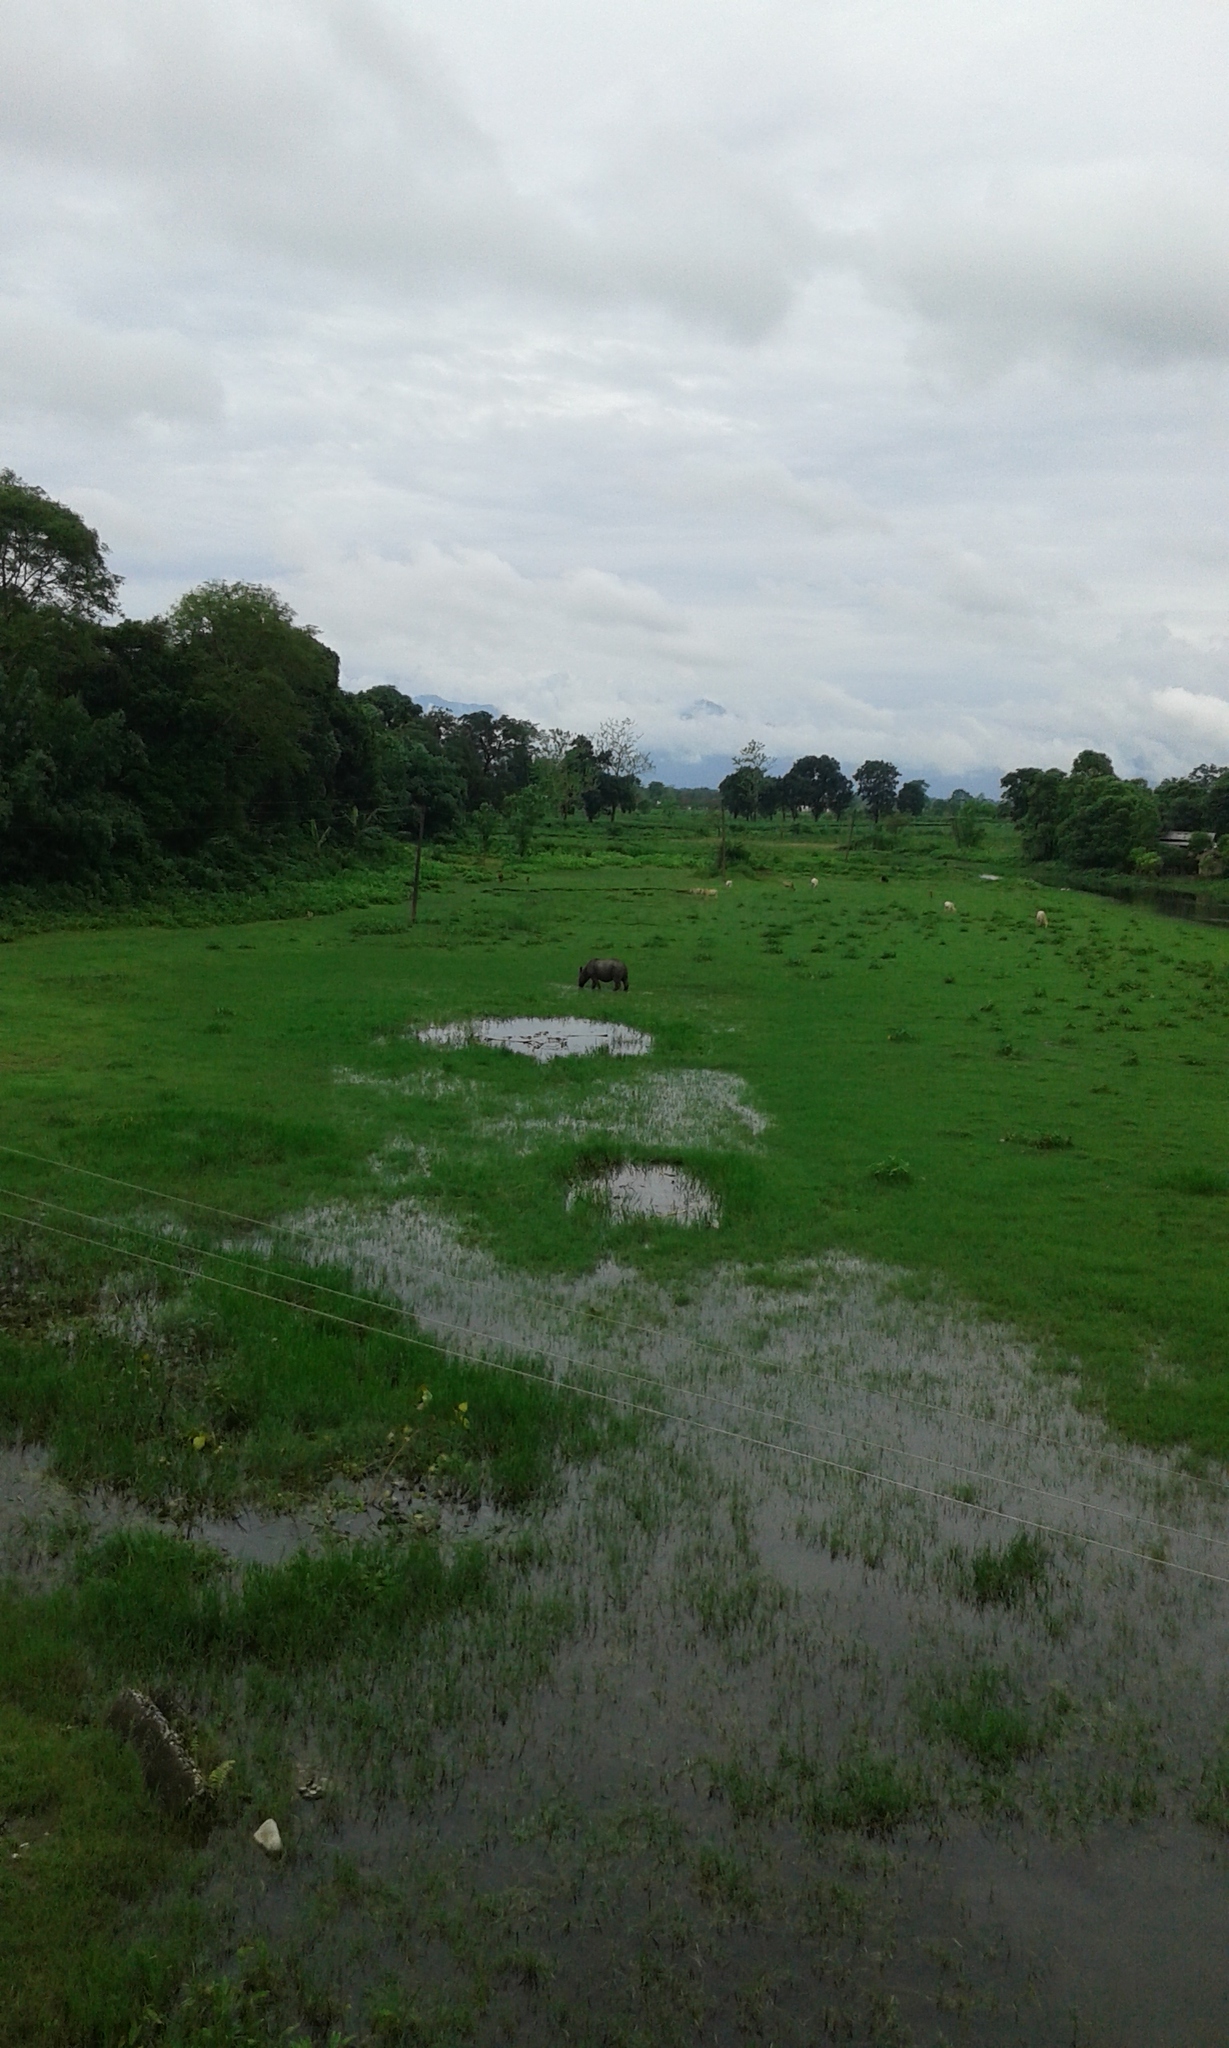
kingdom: Animalia
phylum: Chordata
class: Mammalia
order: Perissodactyla
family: Rhinocerotidae
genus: Rhinoceros
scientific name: Rhinoceros unicornis
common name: Indian rhinoceros
